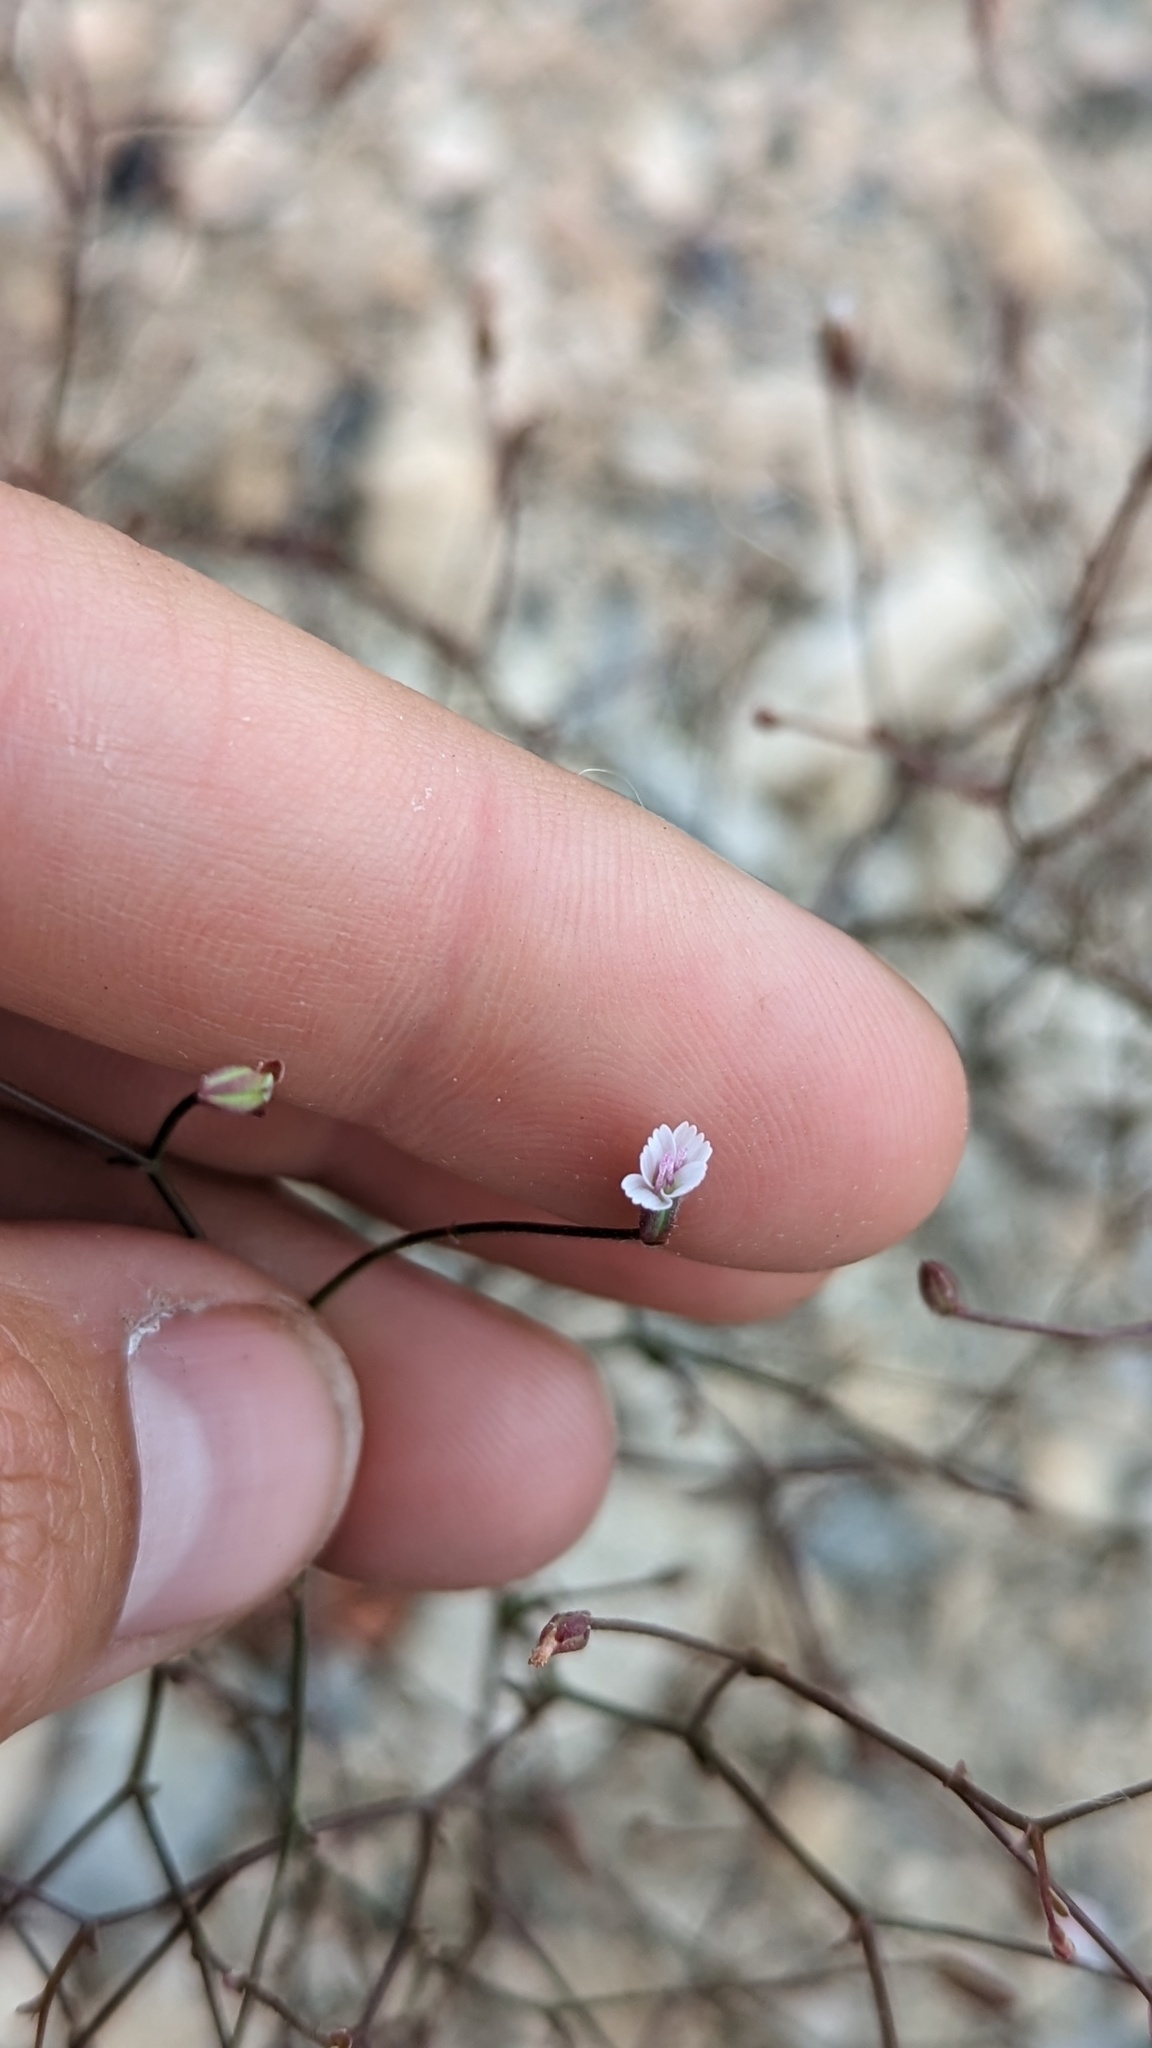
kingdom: Plantae
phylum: Tracheophyta
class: Magnoliopsida
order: Asterales
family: Asteraceae
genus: Lygodesmia
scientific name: Lygodesmia exigua
